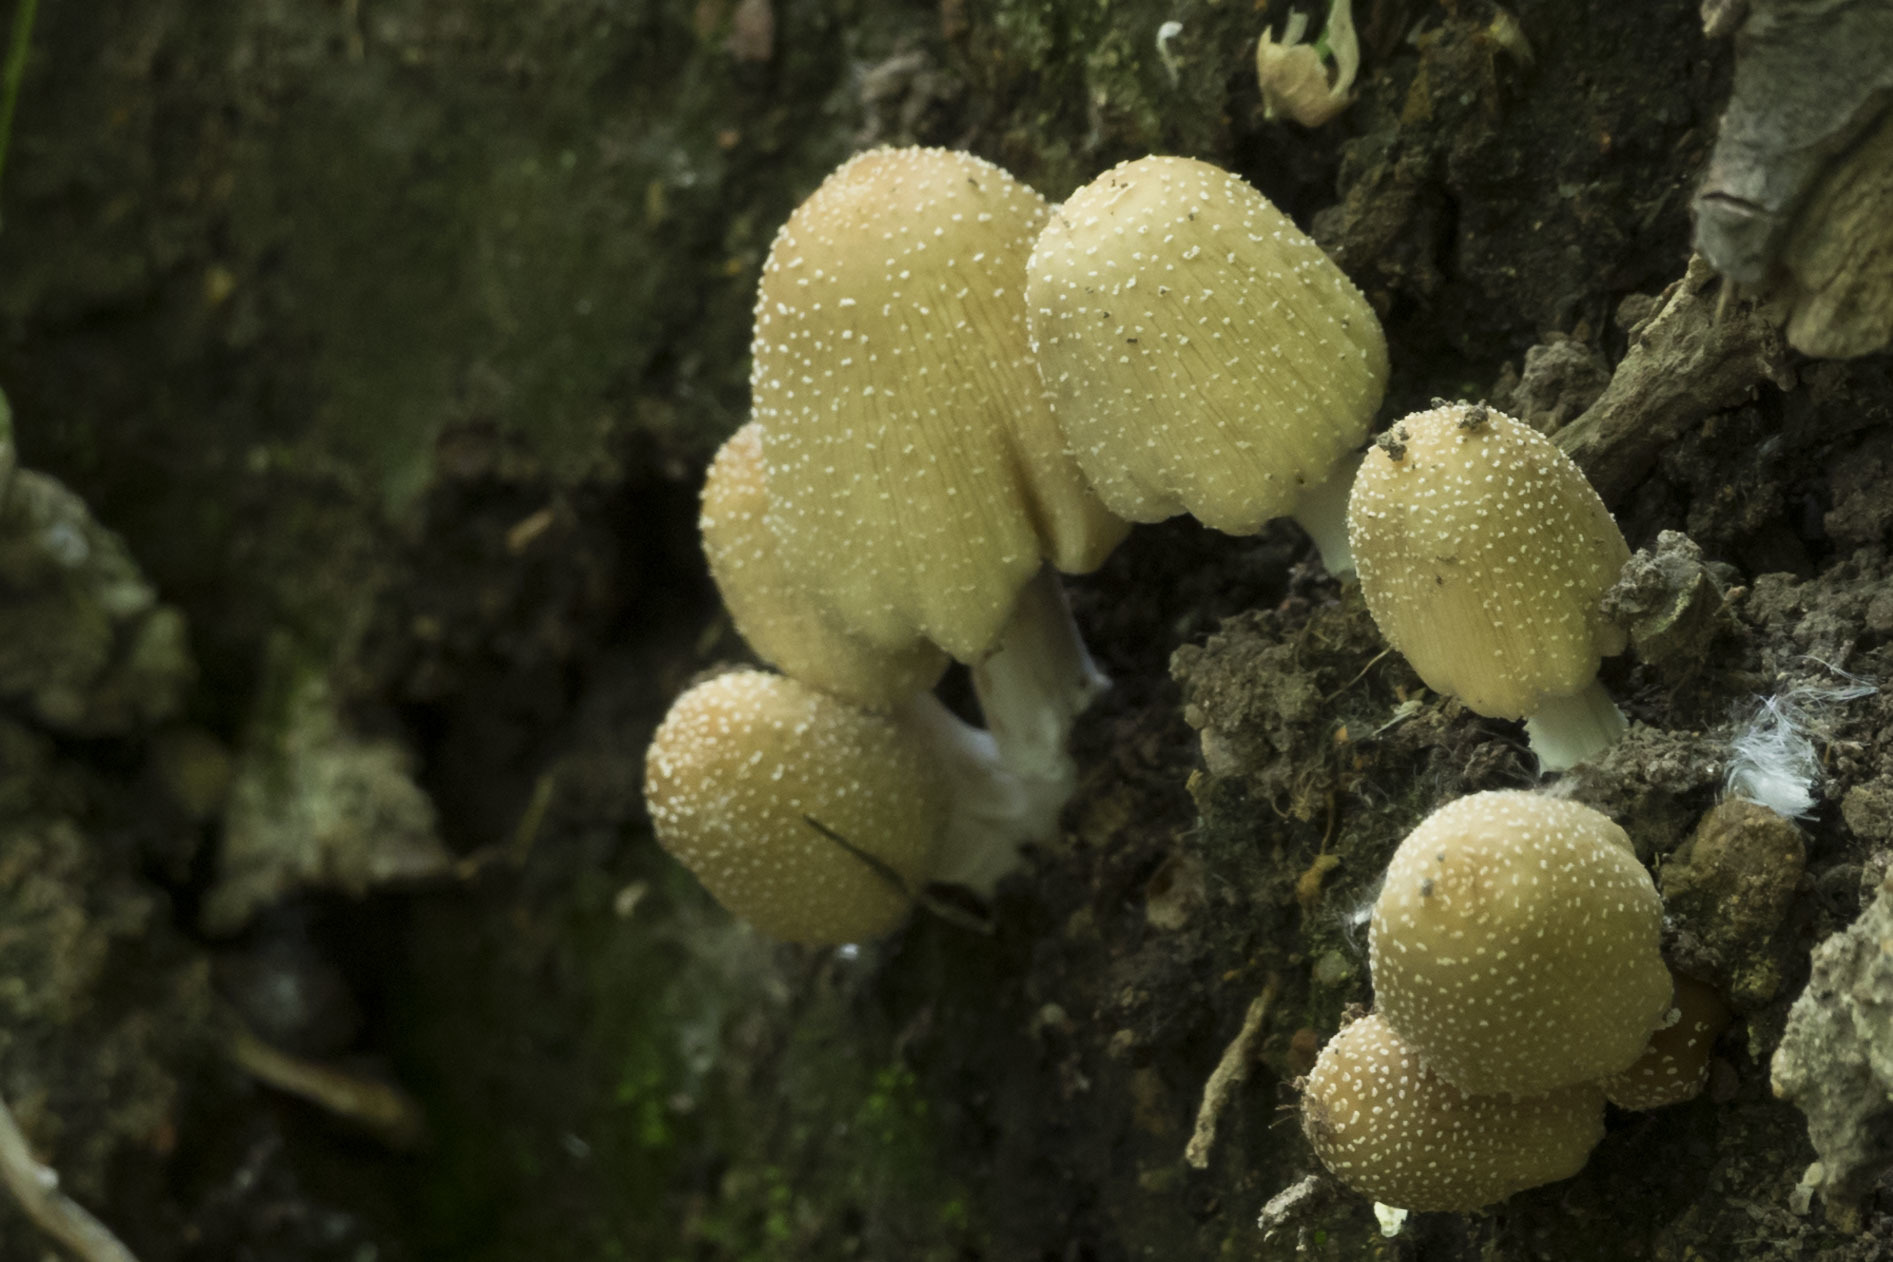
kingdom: Fungi
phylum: Basidiomycota
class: Agaricomycetes
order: Agaricales
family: Psathyrellaceae
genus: Coprinellus
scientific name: Coprinellus micaceus
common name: Glistening ink-cap
